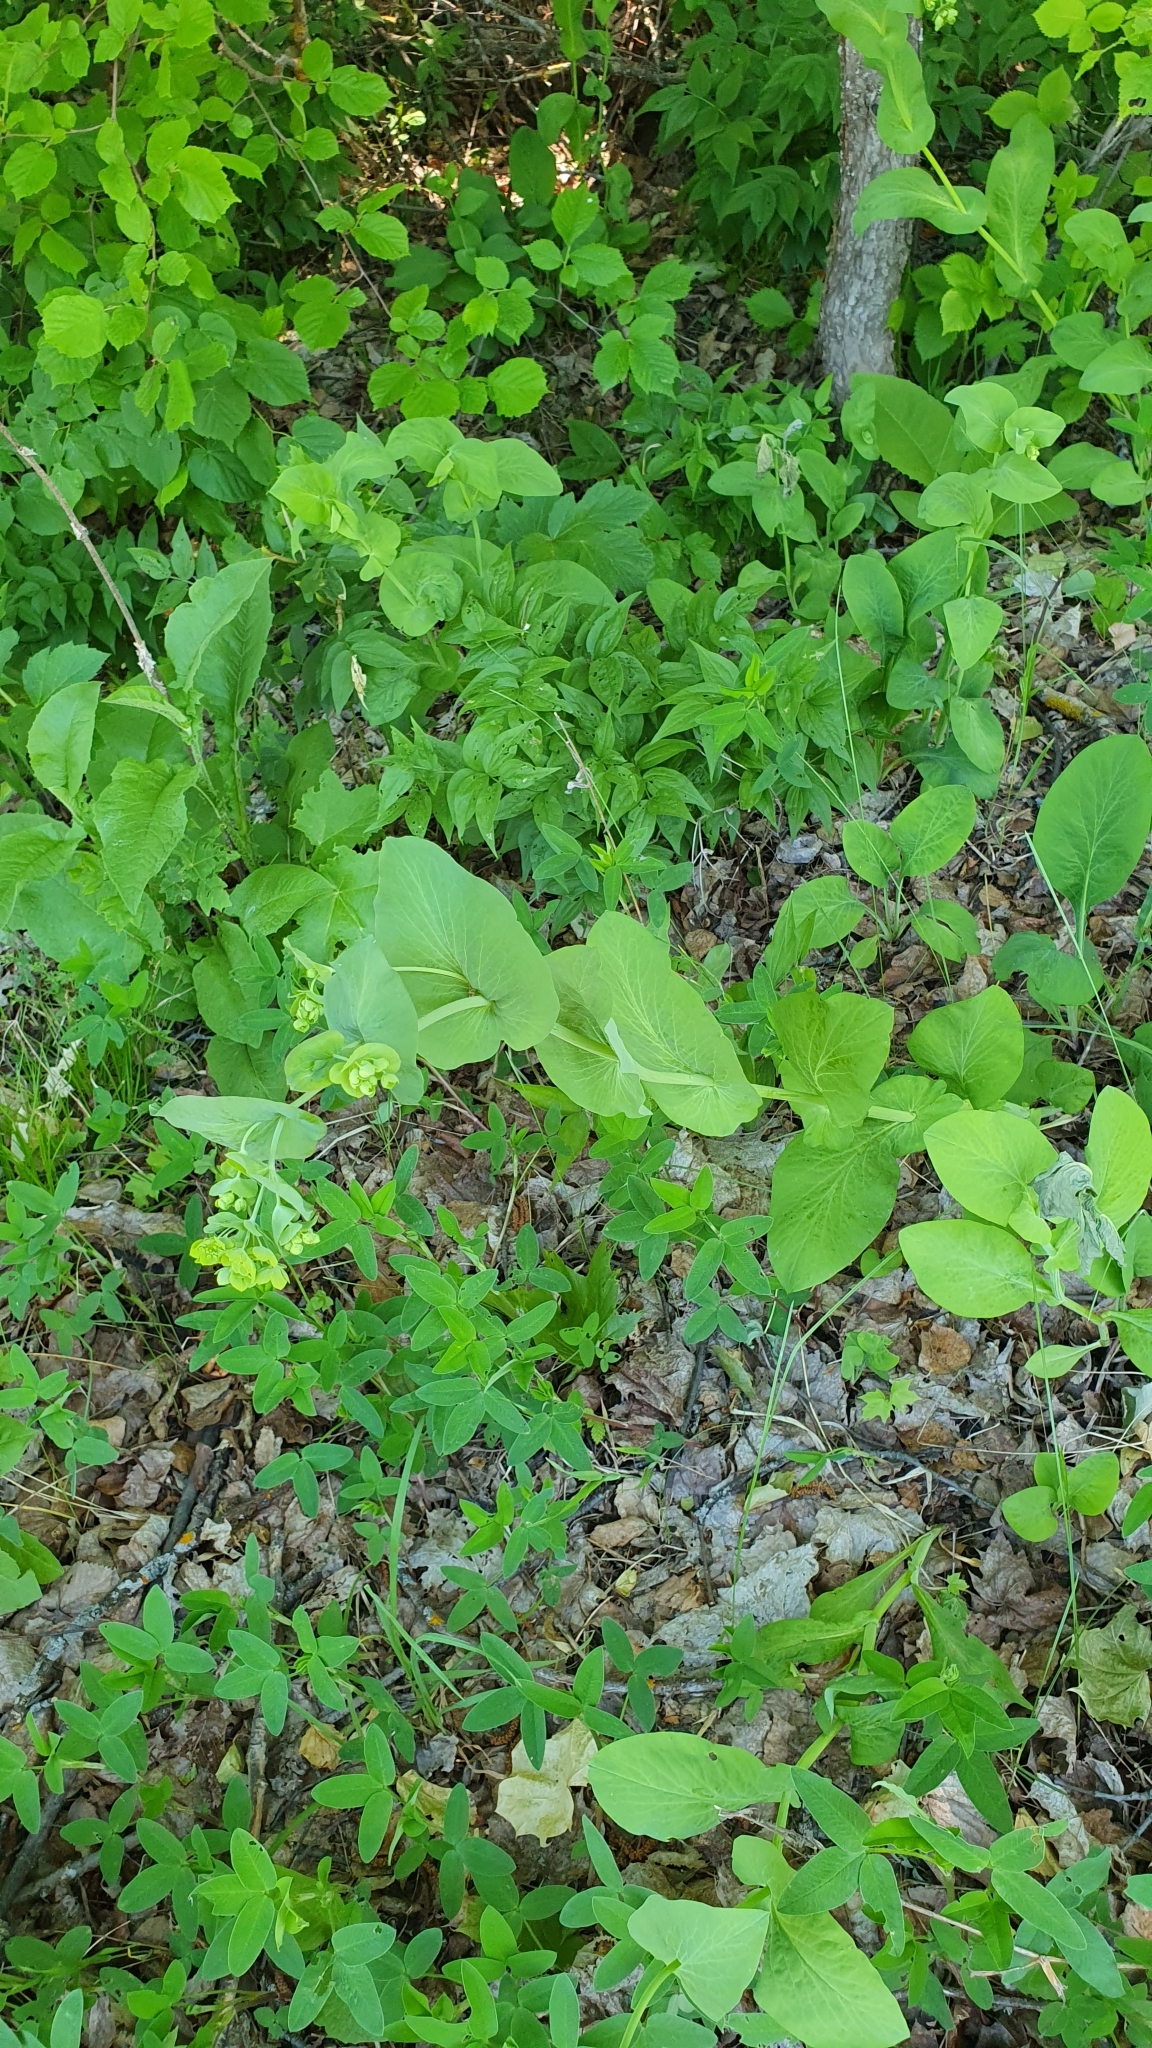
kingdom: Plantae
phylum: Tracheophyta
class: Magnoliopsida
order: Apiales
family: Apiaceae
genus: Bupleurum
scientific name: Bupleurum aureum
